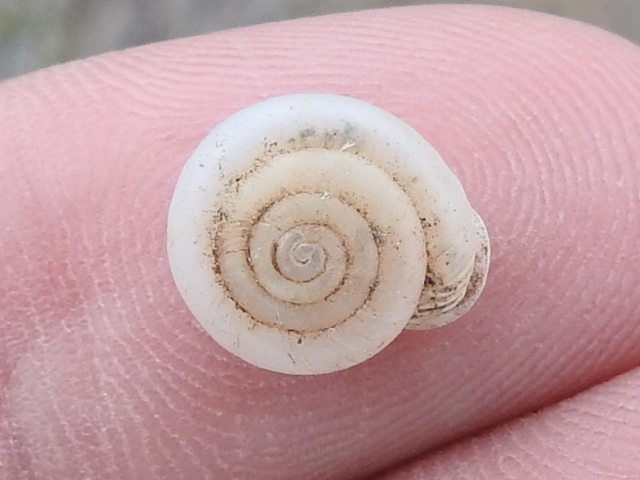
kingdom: Animalia
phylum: Mollusca
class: Gastropoda
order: Stylommatophora
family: Polygyridae
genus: Linisa
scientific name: Linisa tamaulipasensis
